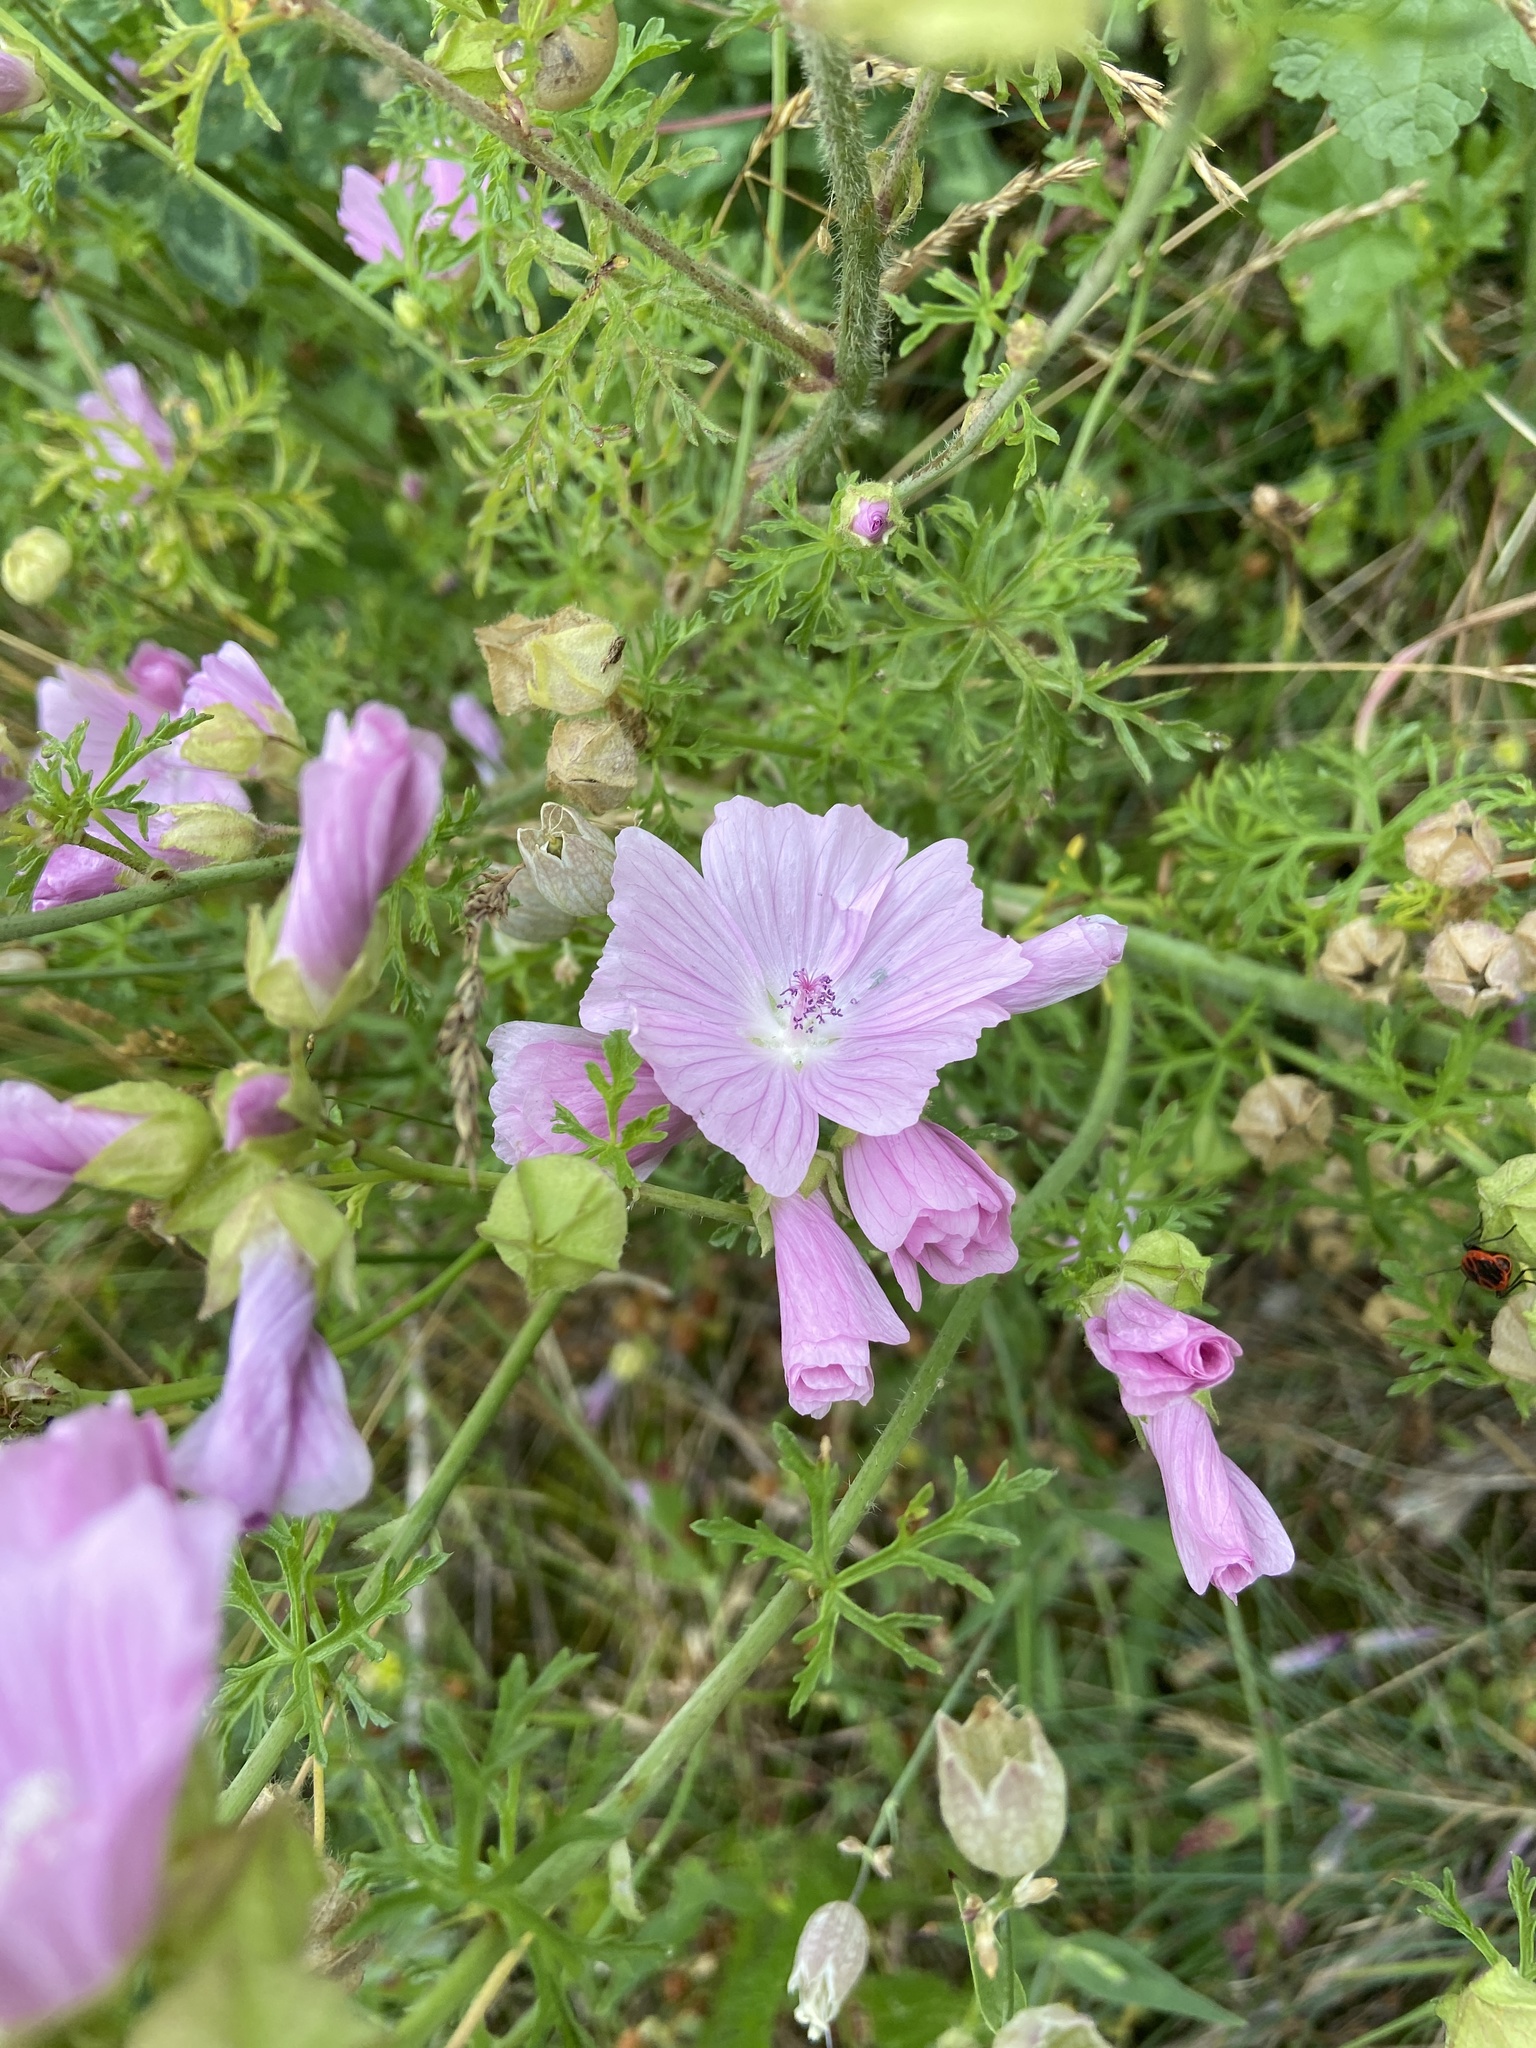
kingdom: Plantae
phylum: Tracheophyta
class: Magnoliopsida
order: Malvales
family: Malvaceae
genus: Malva
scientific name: Malva moschata
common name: Musk mallow
